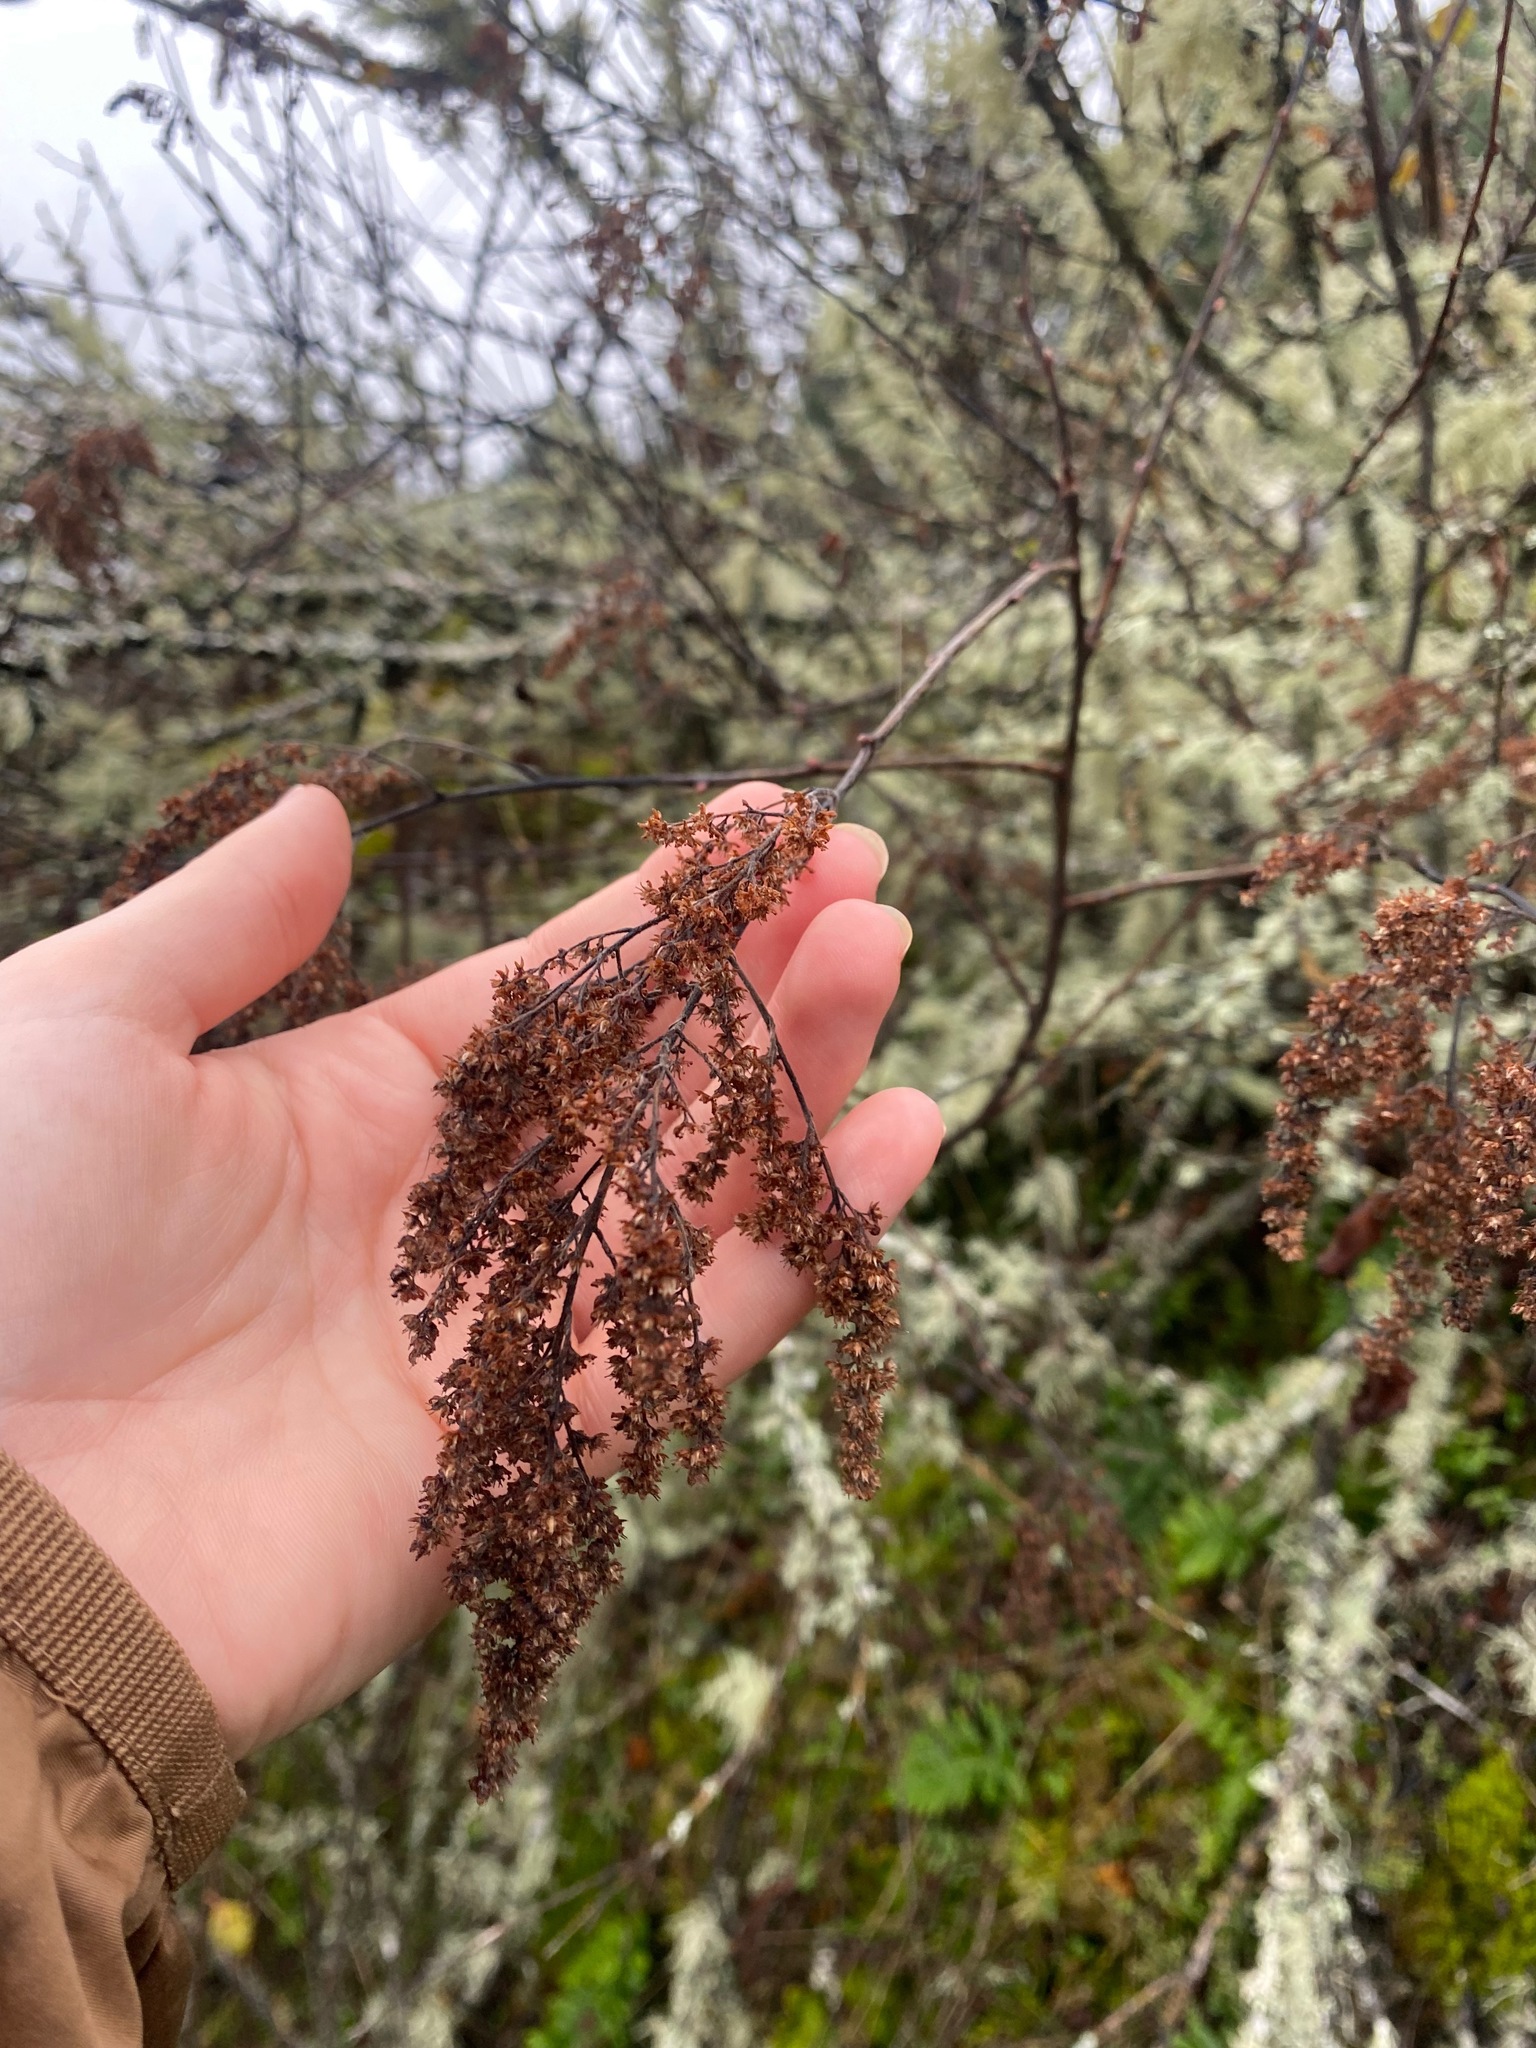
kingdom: Plantae
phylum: Tracheophyta
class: Magnoliopsida
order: Rosales
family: Rosaceae
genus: Holodiscus
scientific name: Holodiscus discolor
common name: Oceanspray
